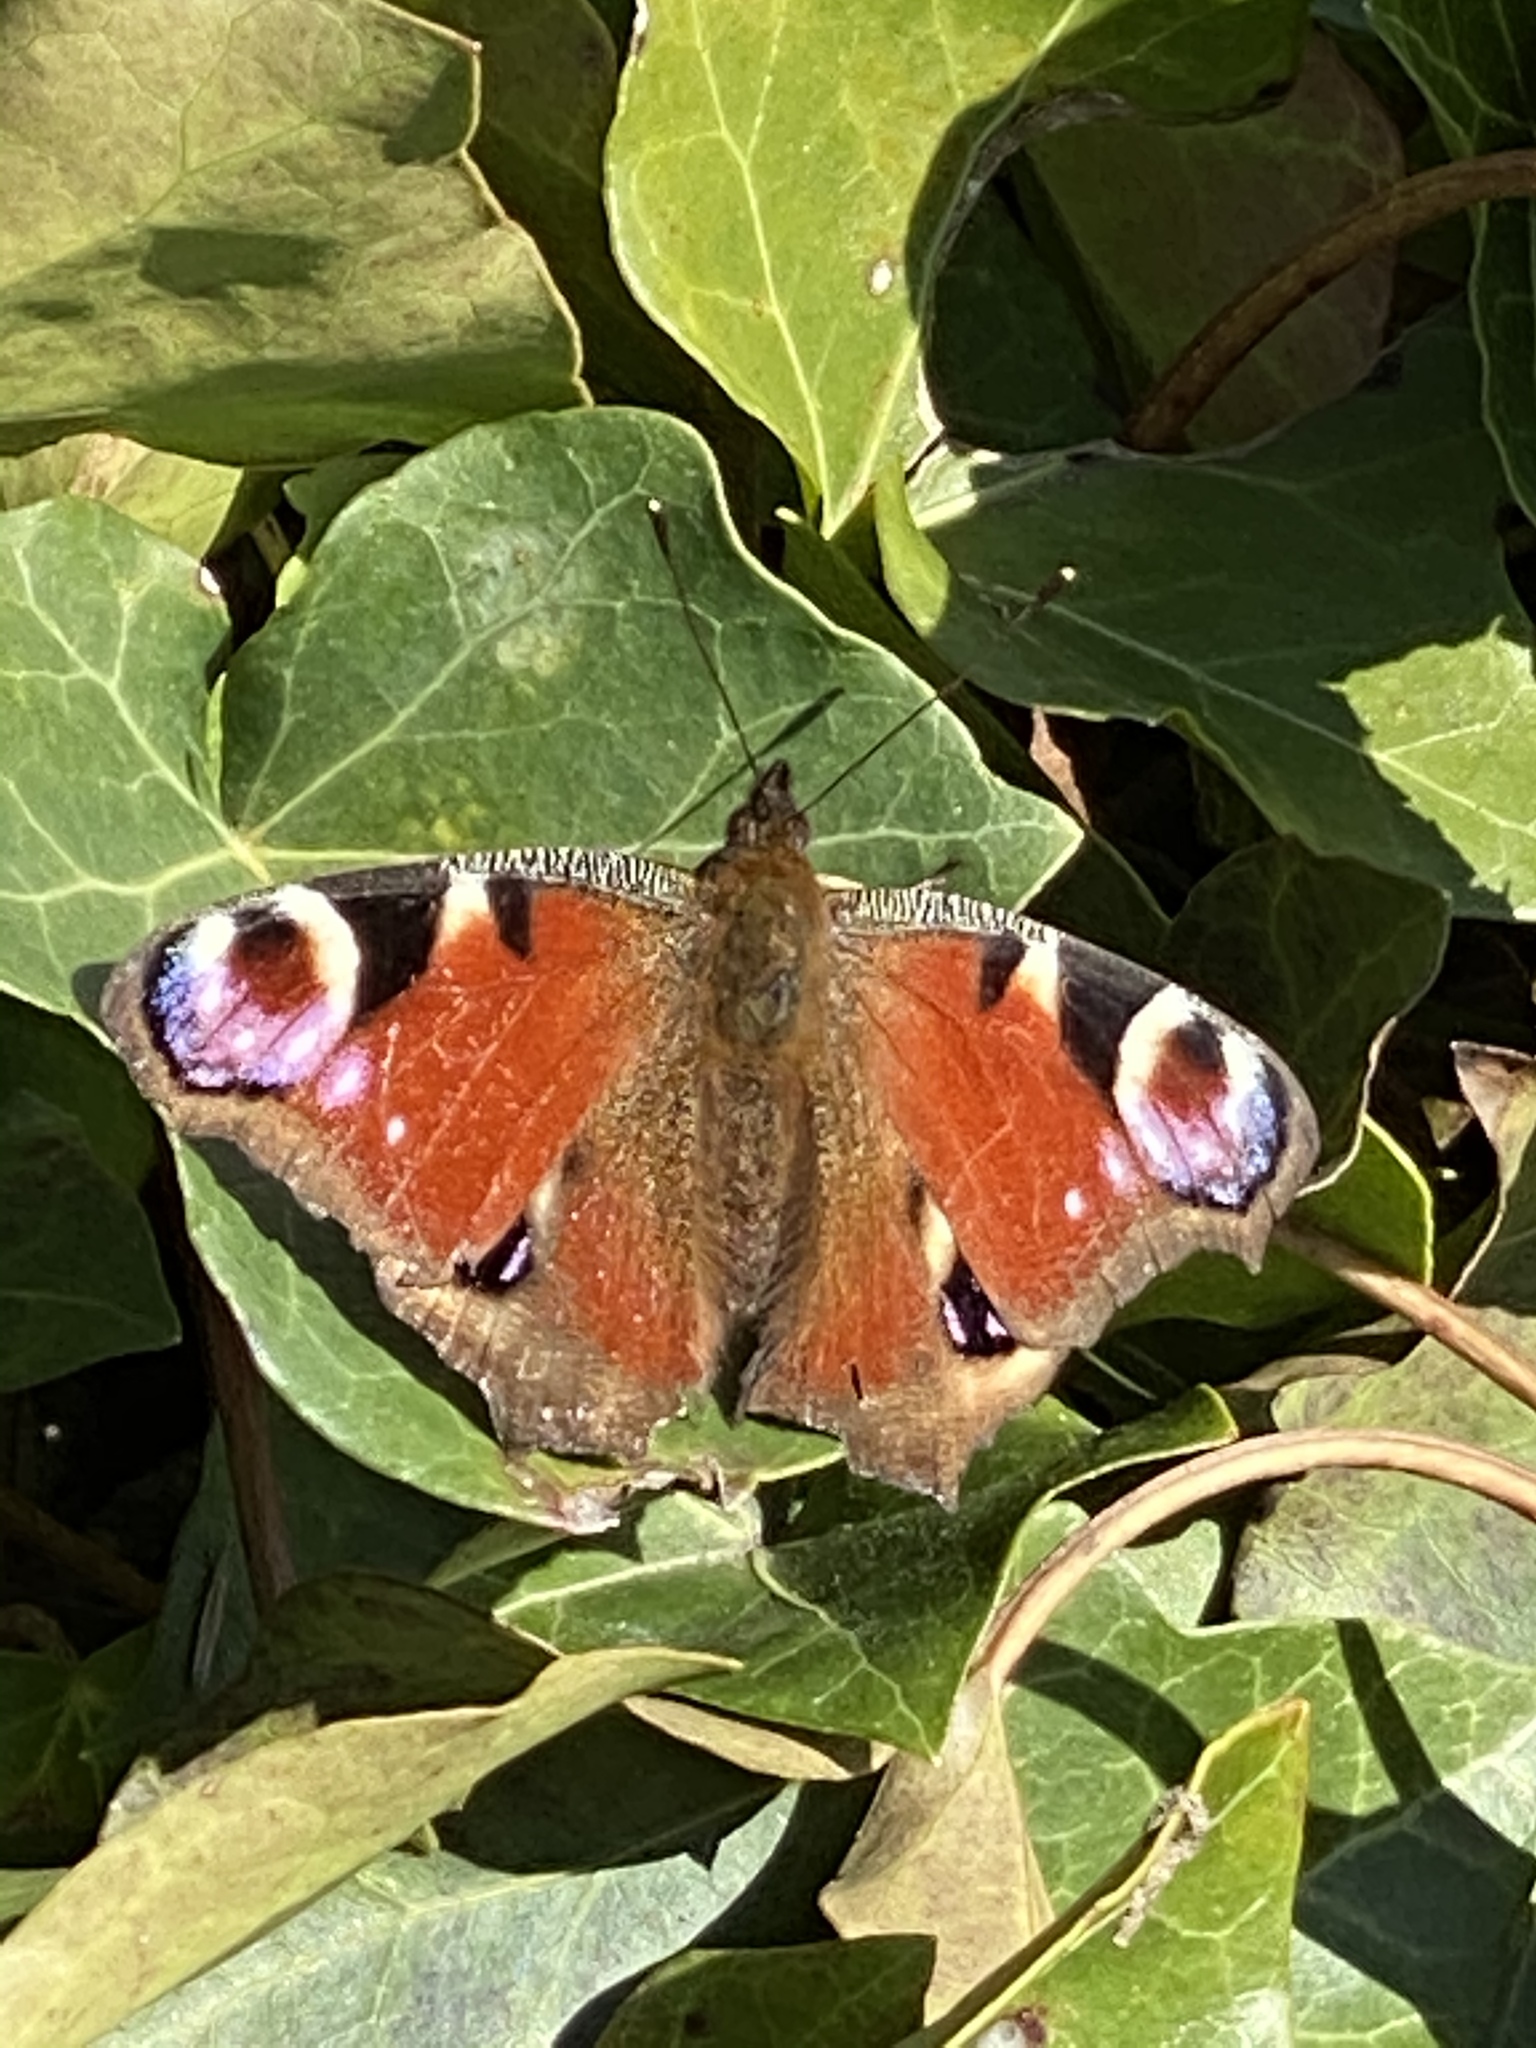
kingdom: Animalia
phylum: Arthropoda
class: Insecta
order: Lepidoptera
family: Nymphalidae
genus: Aglais
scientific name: Aglais io
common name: Peacock
